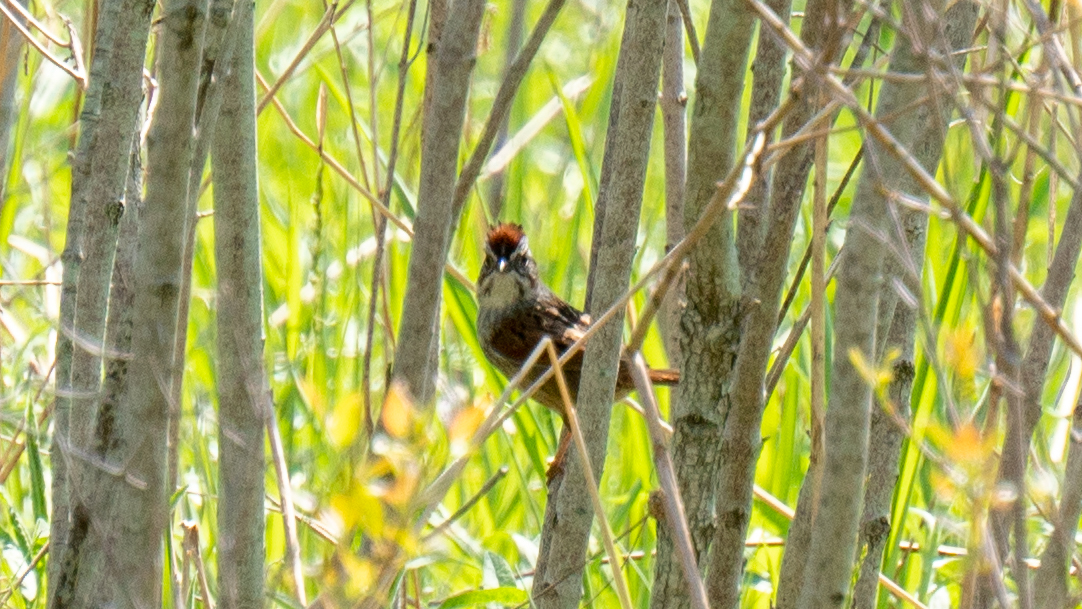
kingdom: Animalia
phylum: Chordata
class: Aves
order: Passeriformes
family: Passerellidae
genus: Melospiza
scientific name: Melospiza georgiana
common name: Swamp sparrow
